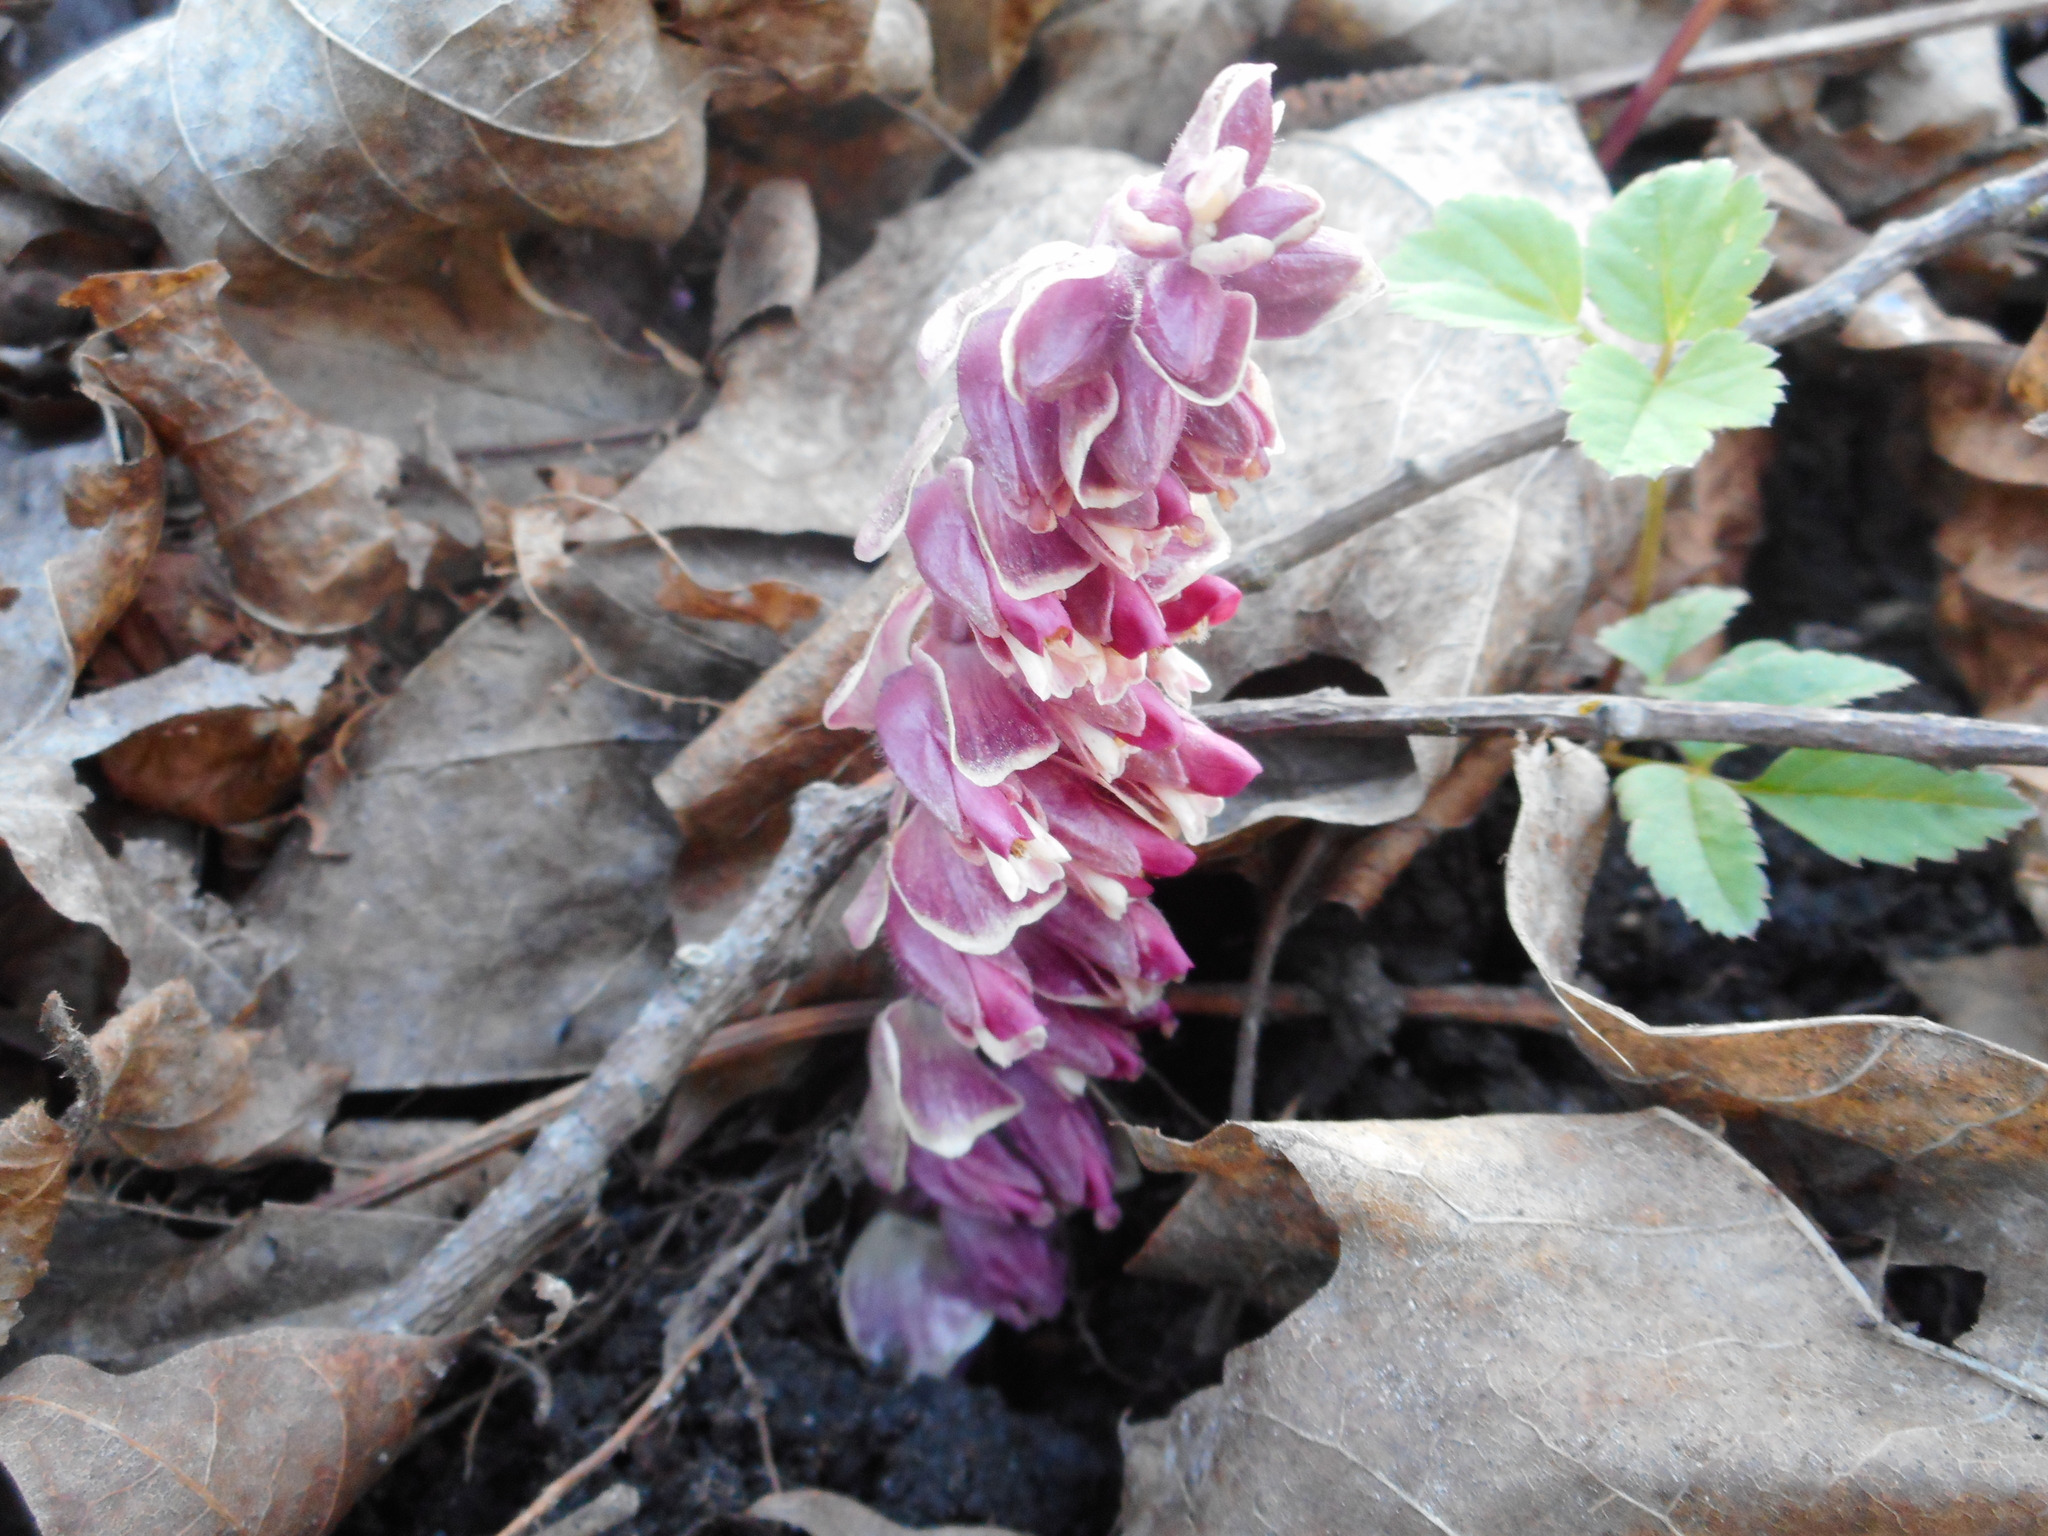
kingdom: Plantae
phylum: Tracheophyta
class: Magnoliopsida
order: Lamiales
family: Orobanchaceae
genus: Lathraea
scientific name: Lathraea squamaria
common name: Toothwort
